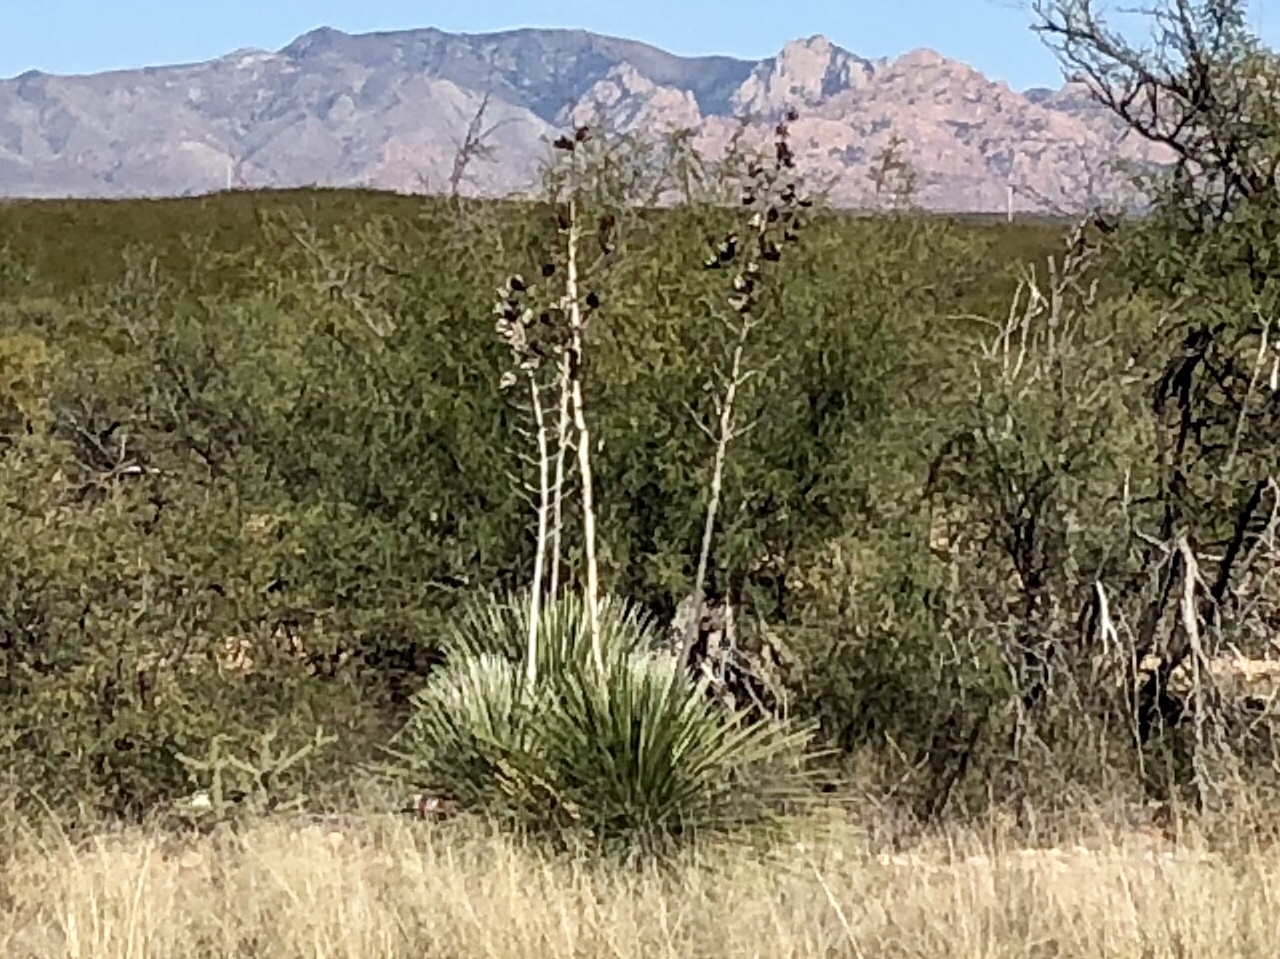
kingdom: Plantae
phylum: Tracheophyta
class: Liliopsida
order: Asparagales
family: Asparagaceae
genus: Yucca
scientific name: Yucca elata
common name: Palmella
